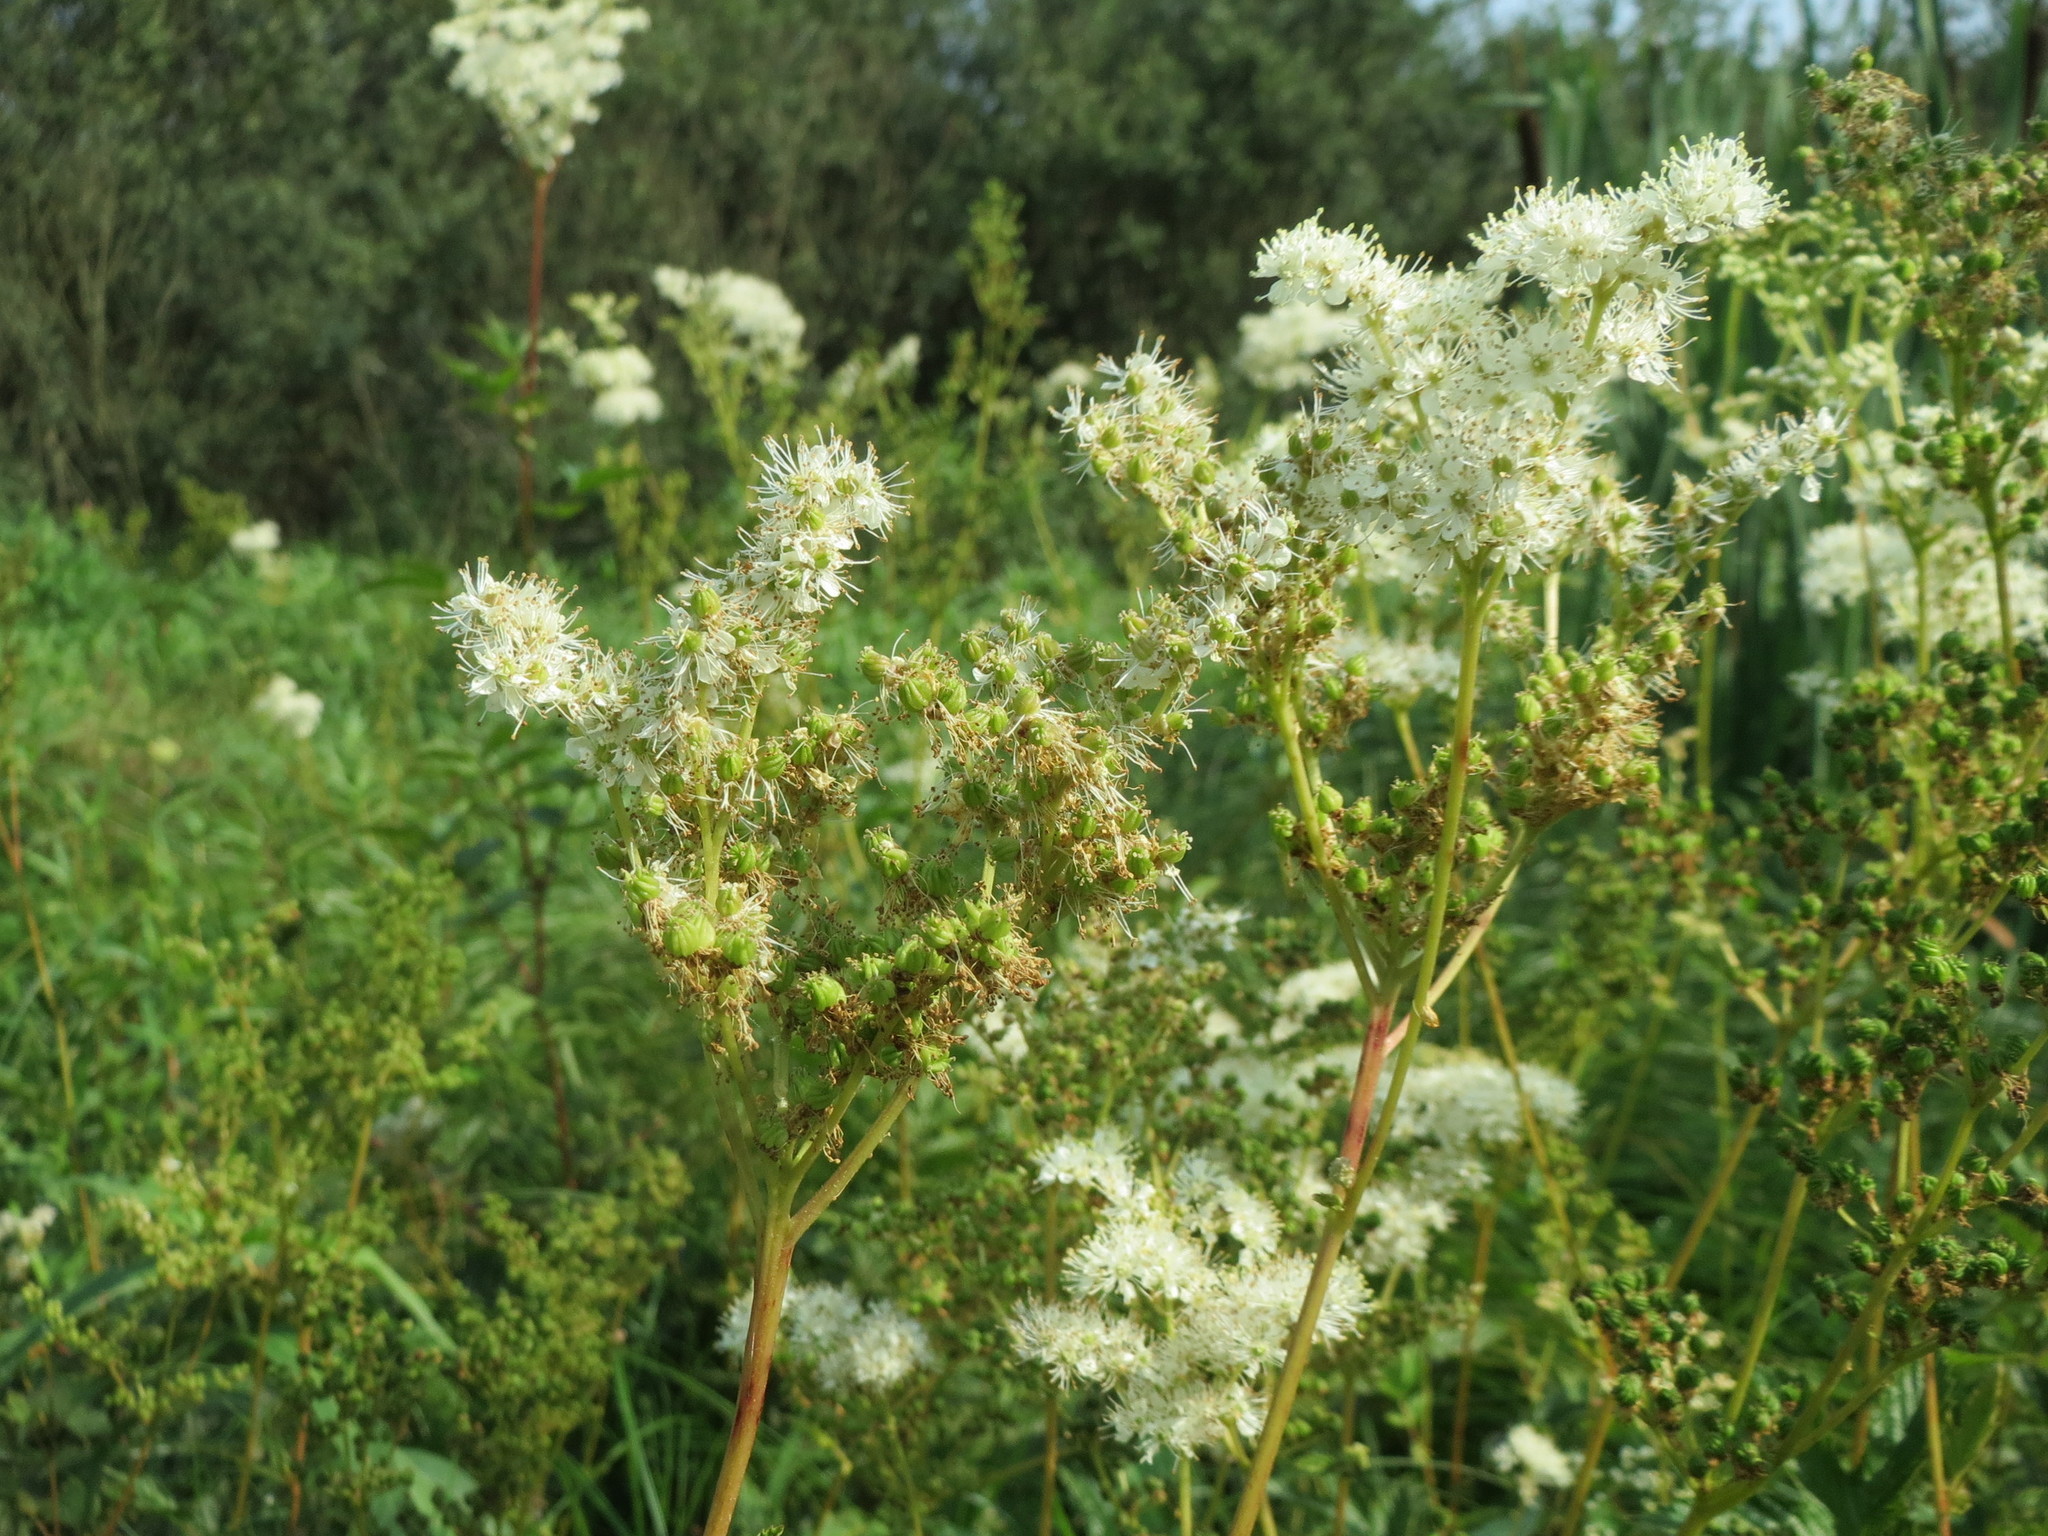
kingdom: Plantae
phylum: Tracheophyta
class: Magnoliopsida
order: Rosales
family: Rosaceae
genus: Filipendula
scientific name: Filipendula ulmaria
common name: Meadowsweet
